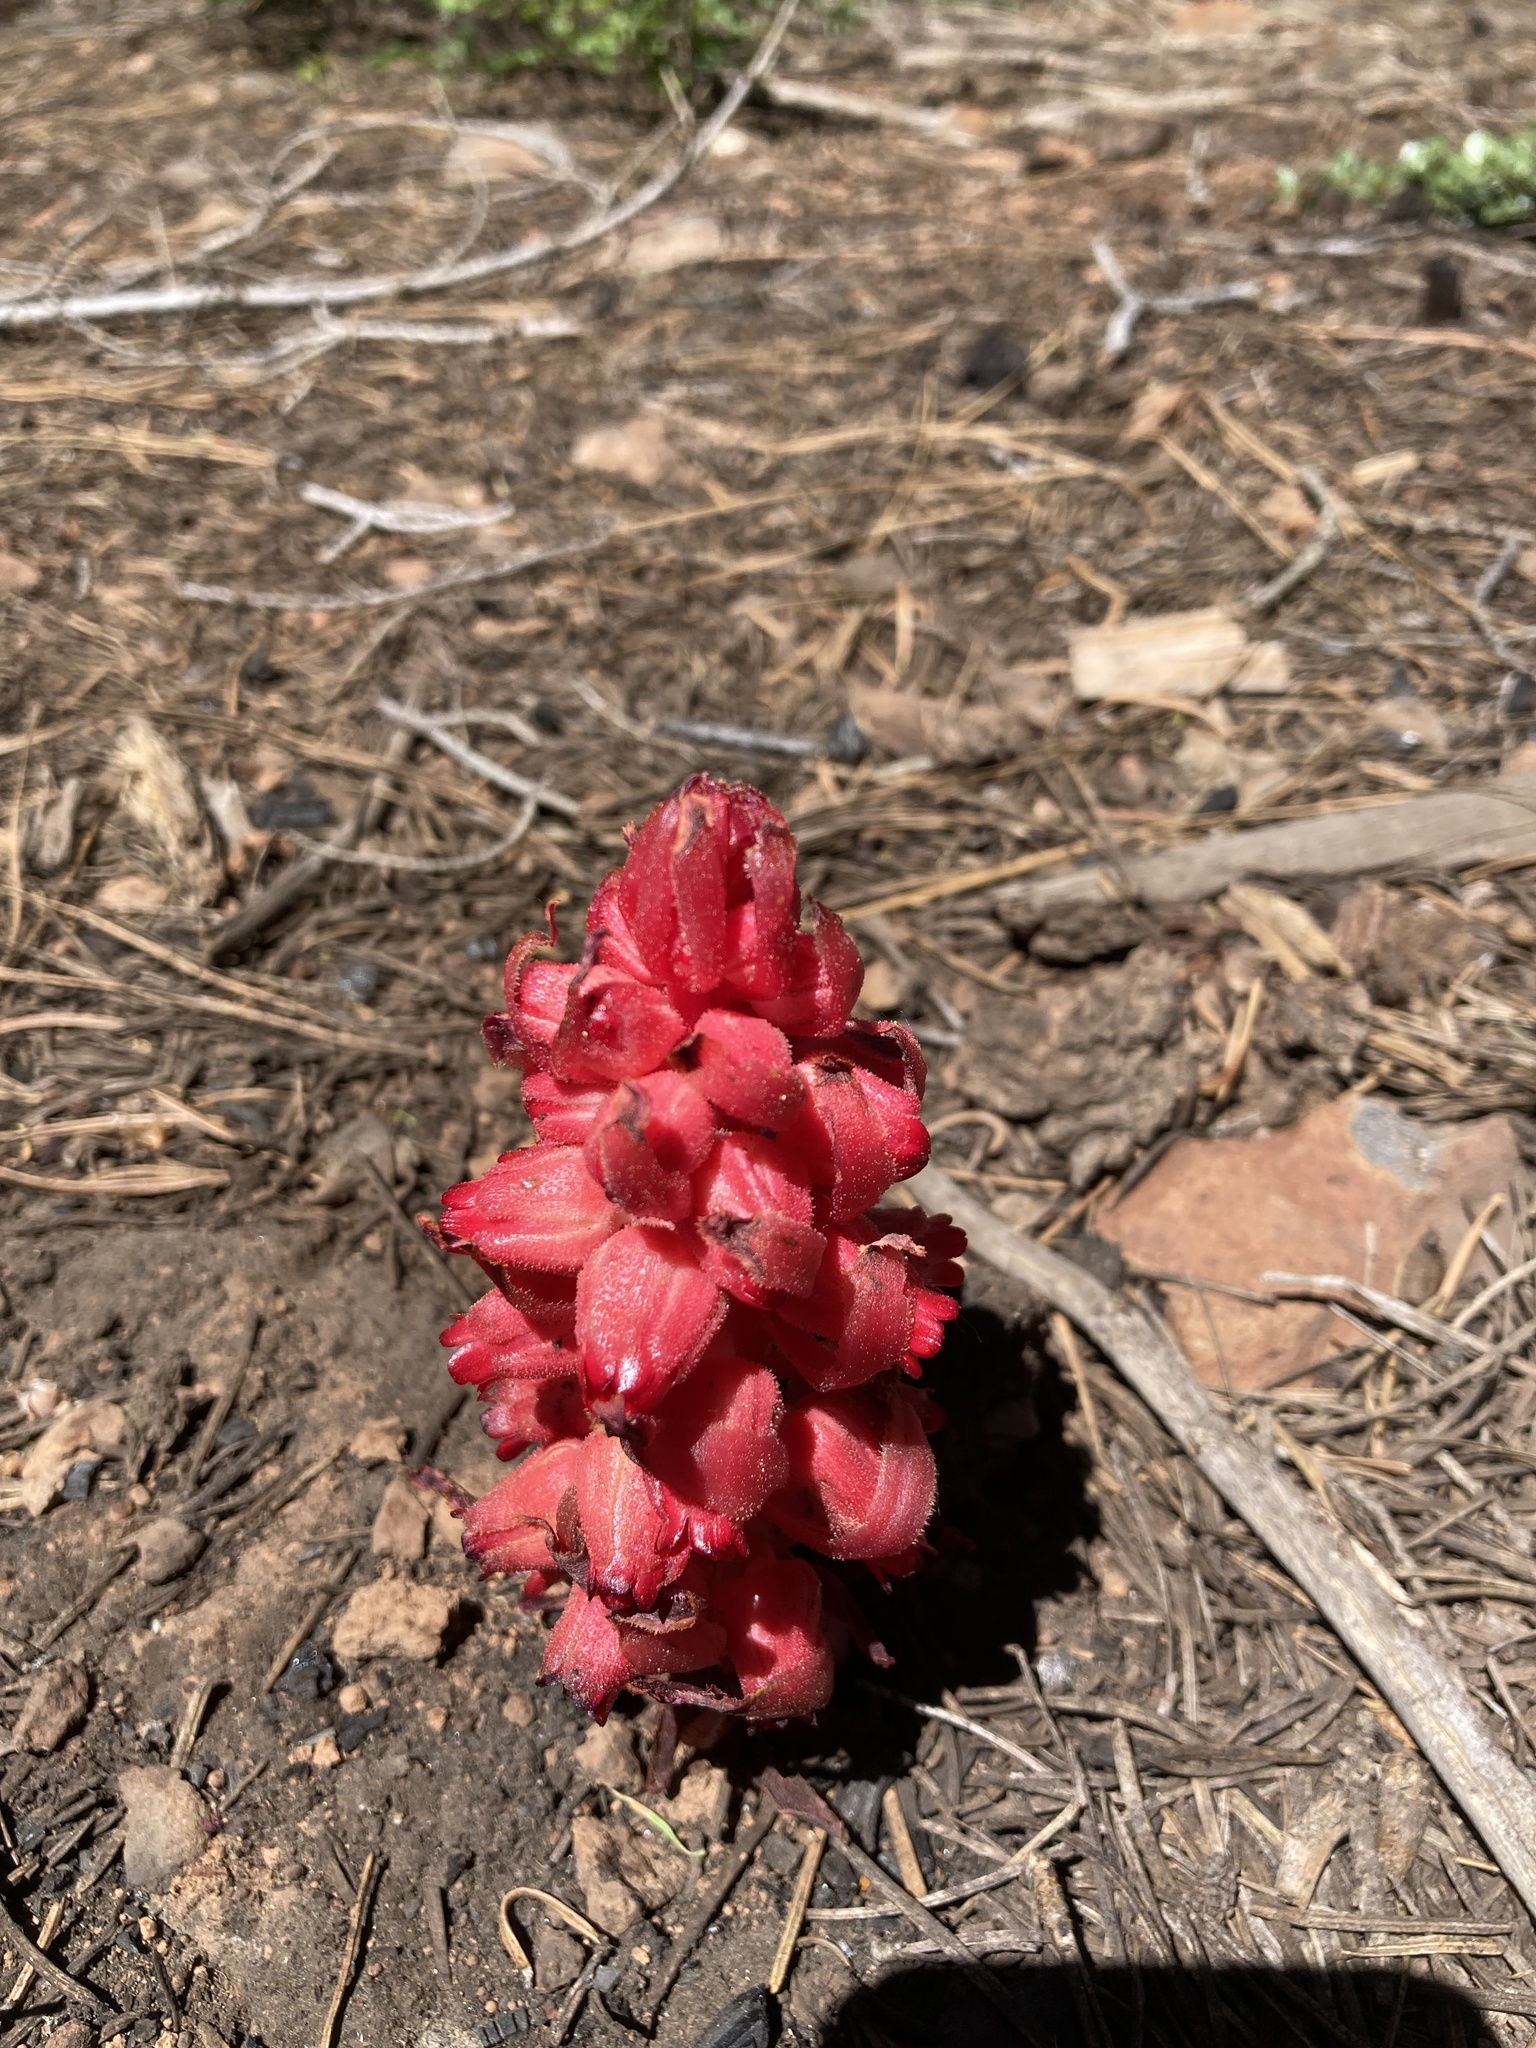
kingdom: Plantae
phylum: Tracheophyta
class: Magnoliopsida
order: Ericales
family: Ericaceae
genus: Sarcodes
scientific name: Sarcodes sanguinea
